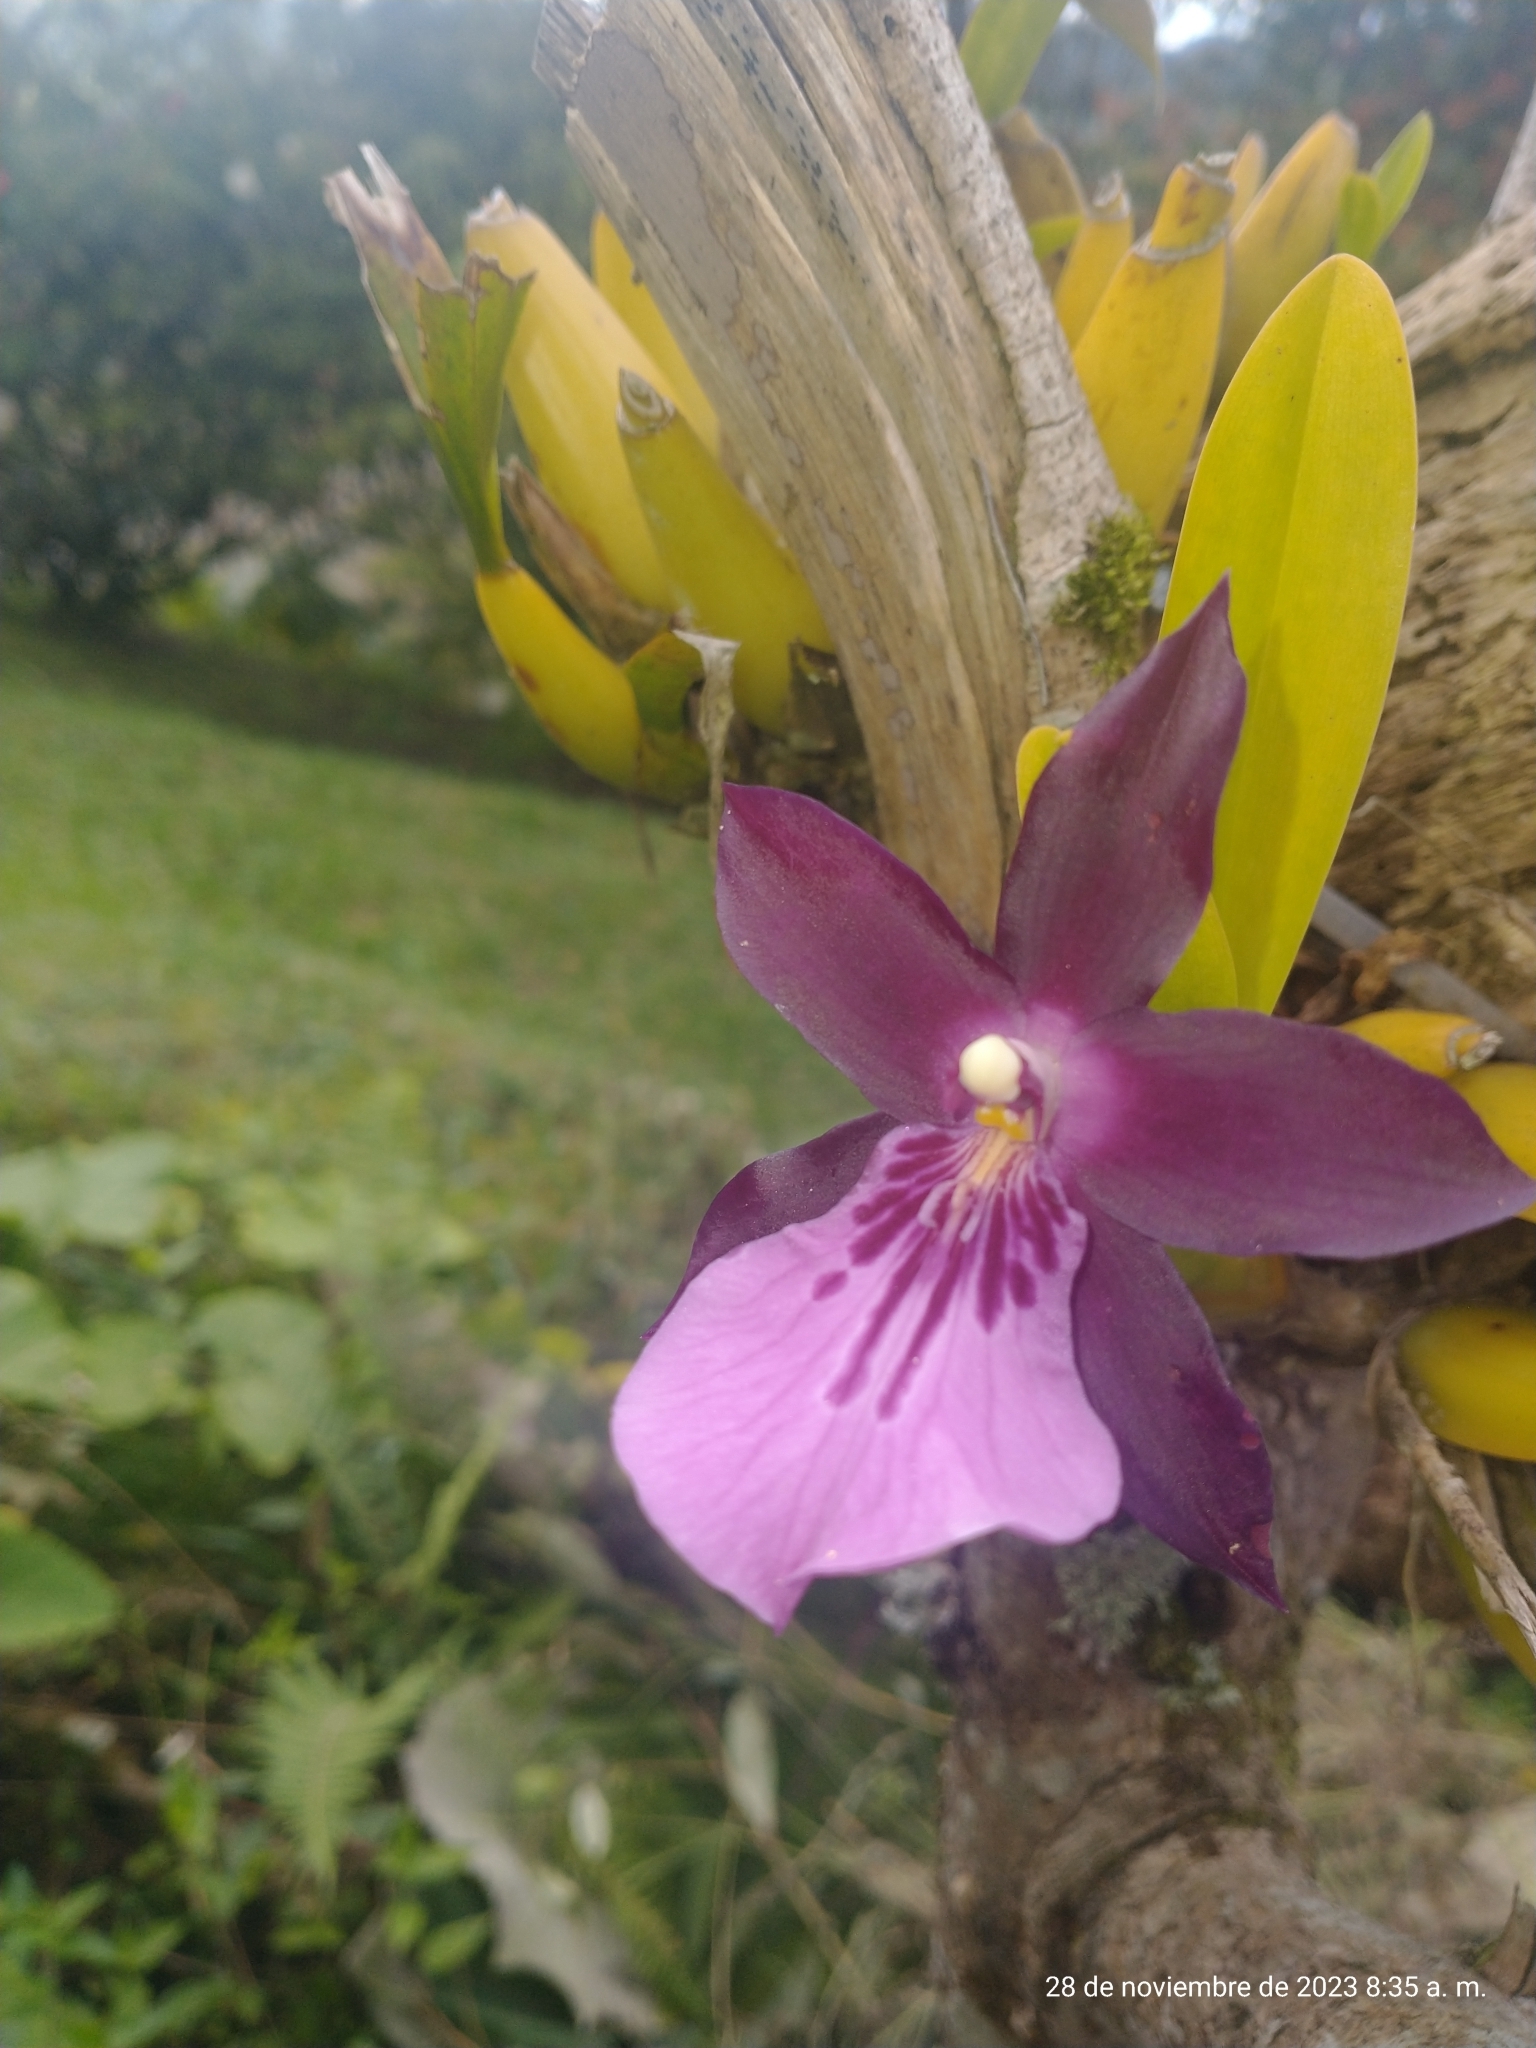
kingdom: Plantae
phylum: Tracheophyta
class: Liliopsida
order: Asparagales
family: Orchidaceae
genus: Miltonia
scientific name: Miltonia moreliana
